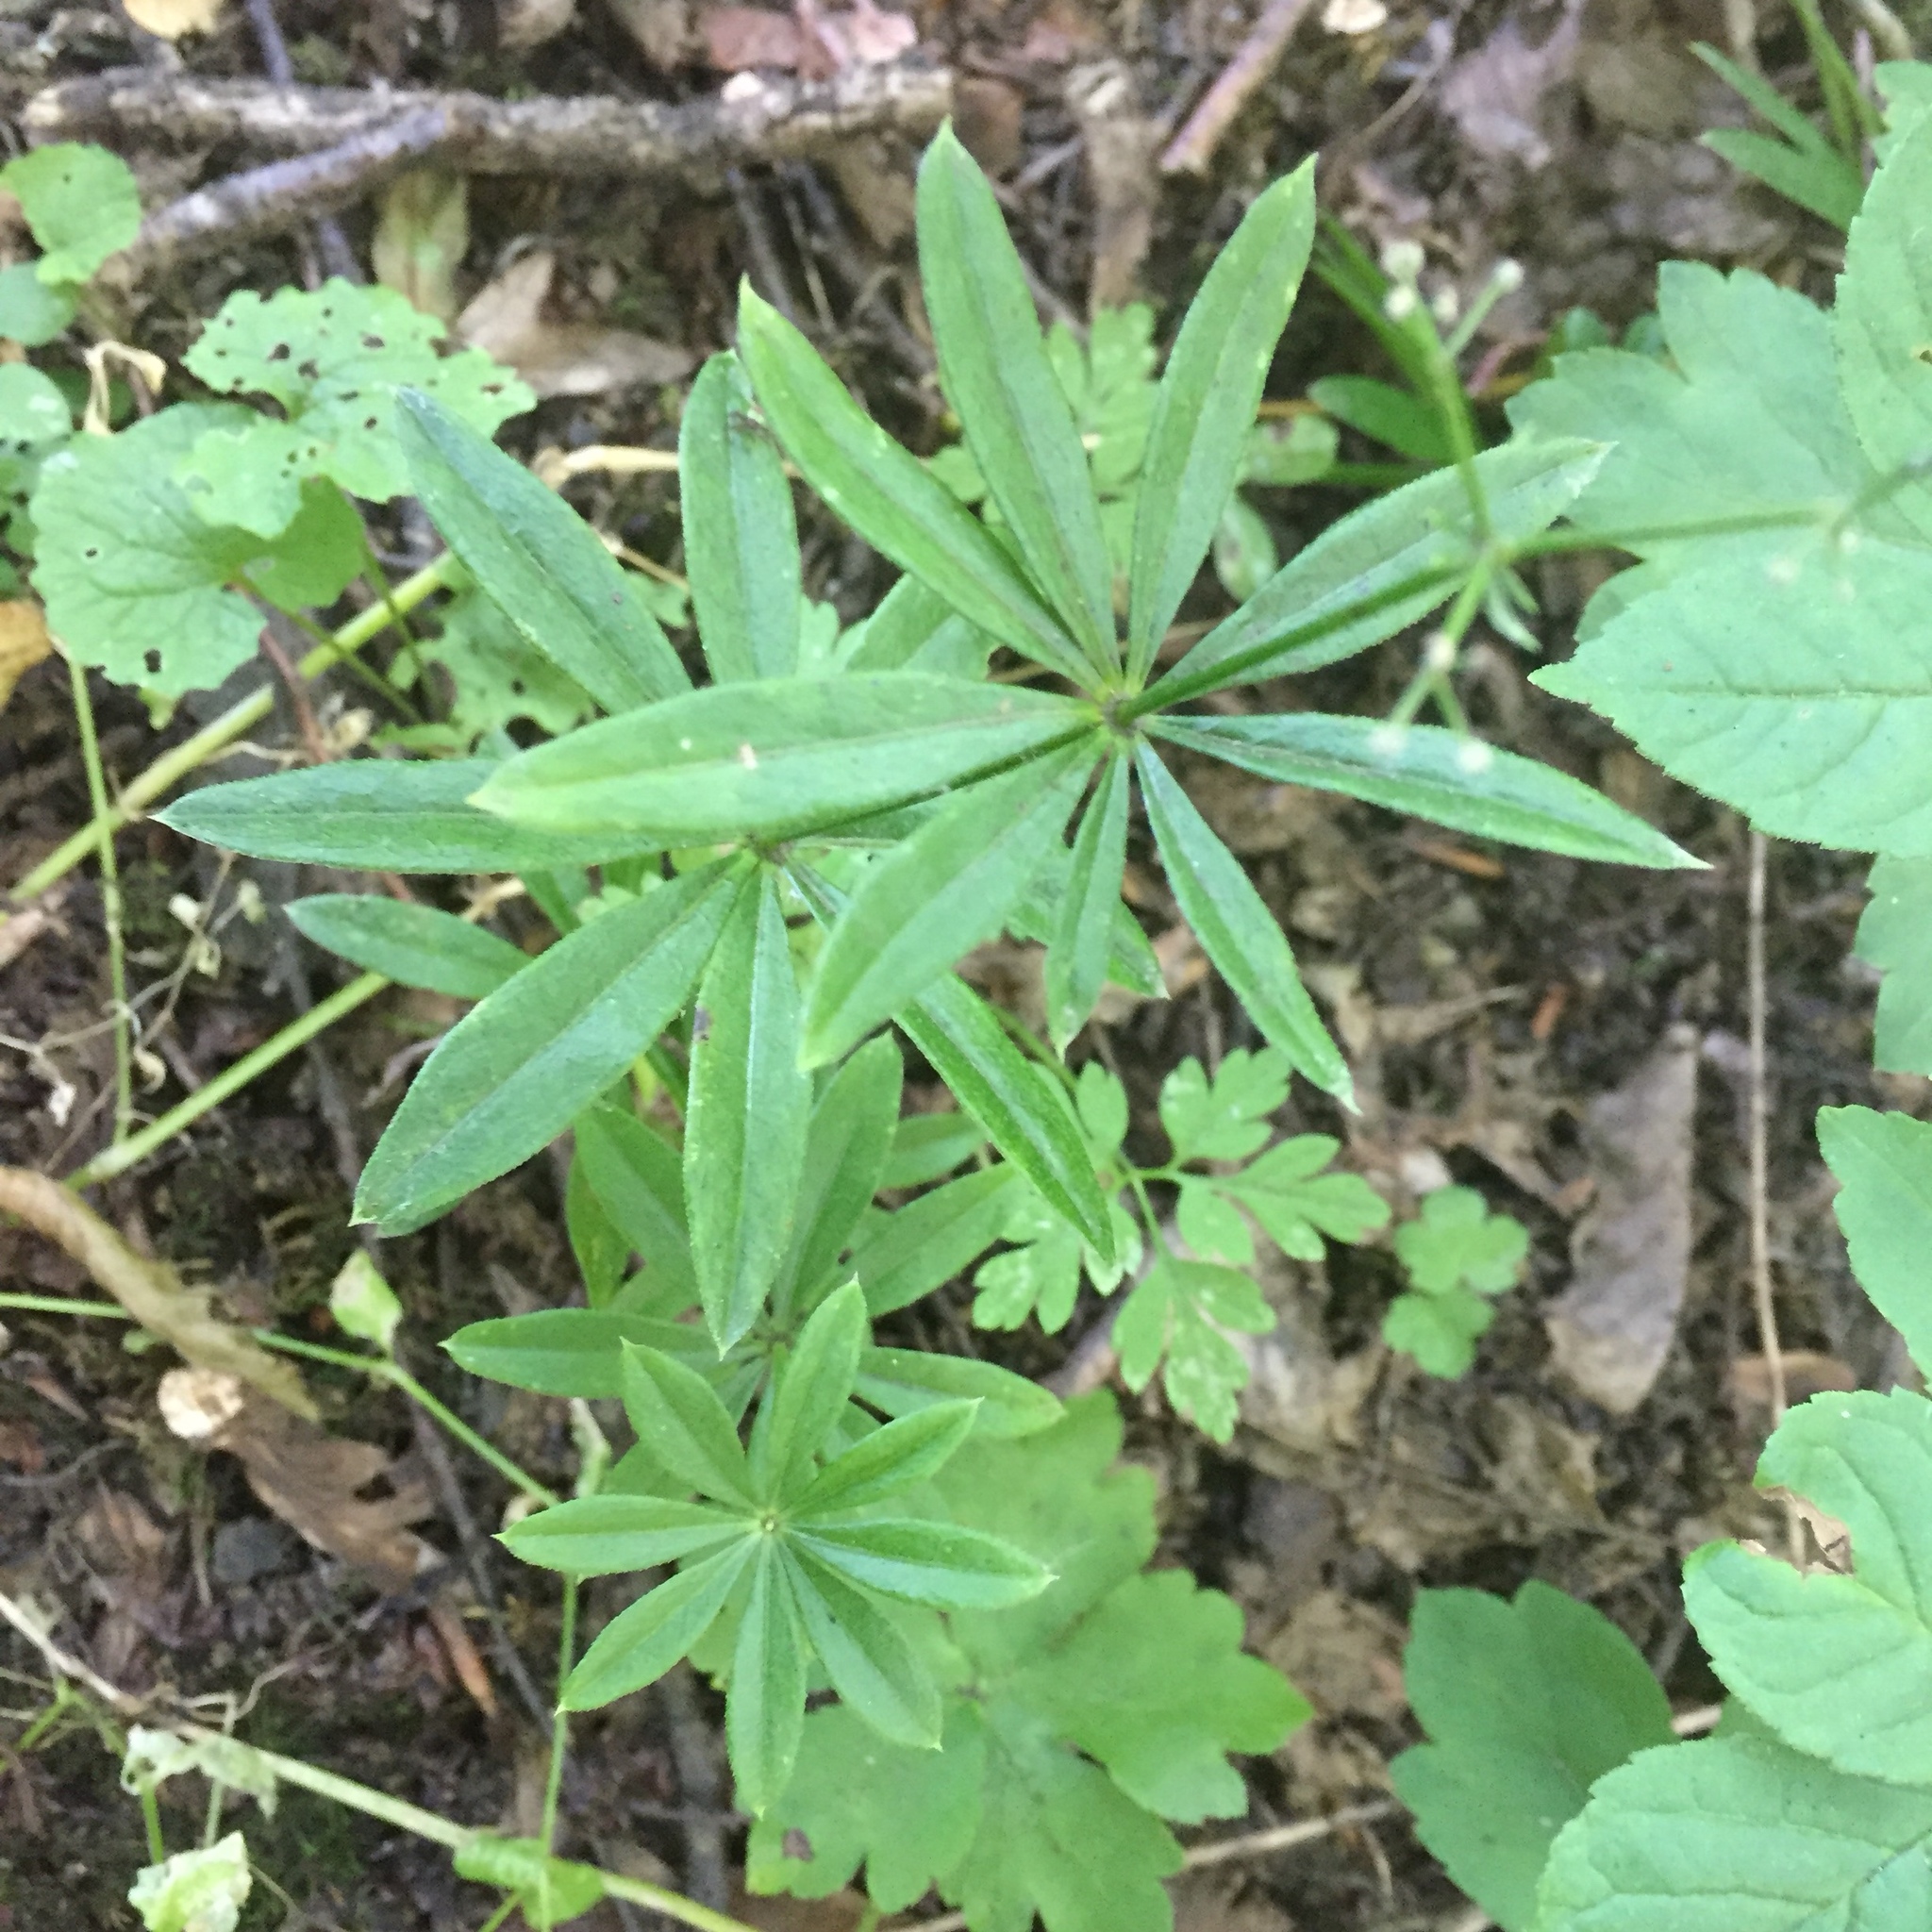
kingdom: Plantae
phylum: Tracheophyta
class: Magnoliopsida
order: Gentianales
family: Rubiaceae
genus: Galium
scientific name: Galium odoratum
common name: Sweet woodruff
